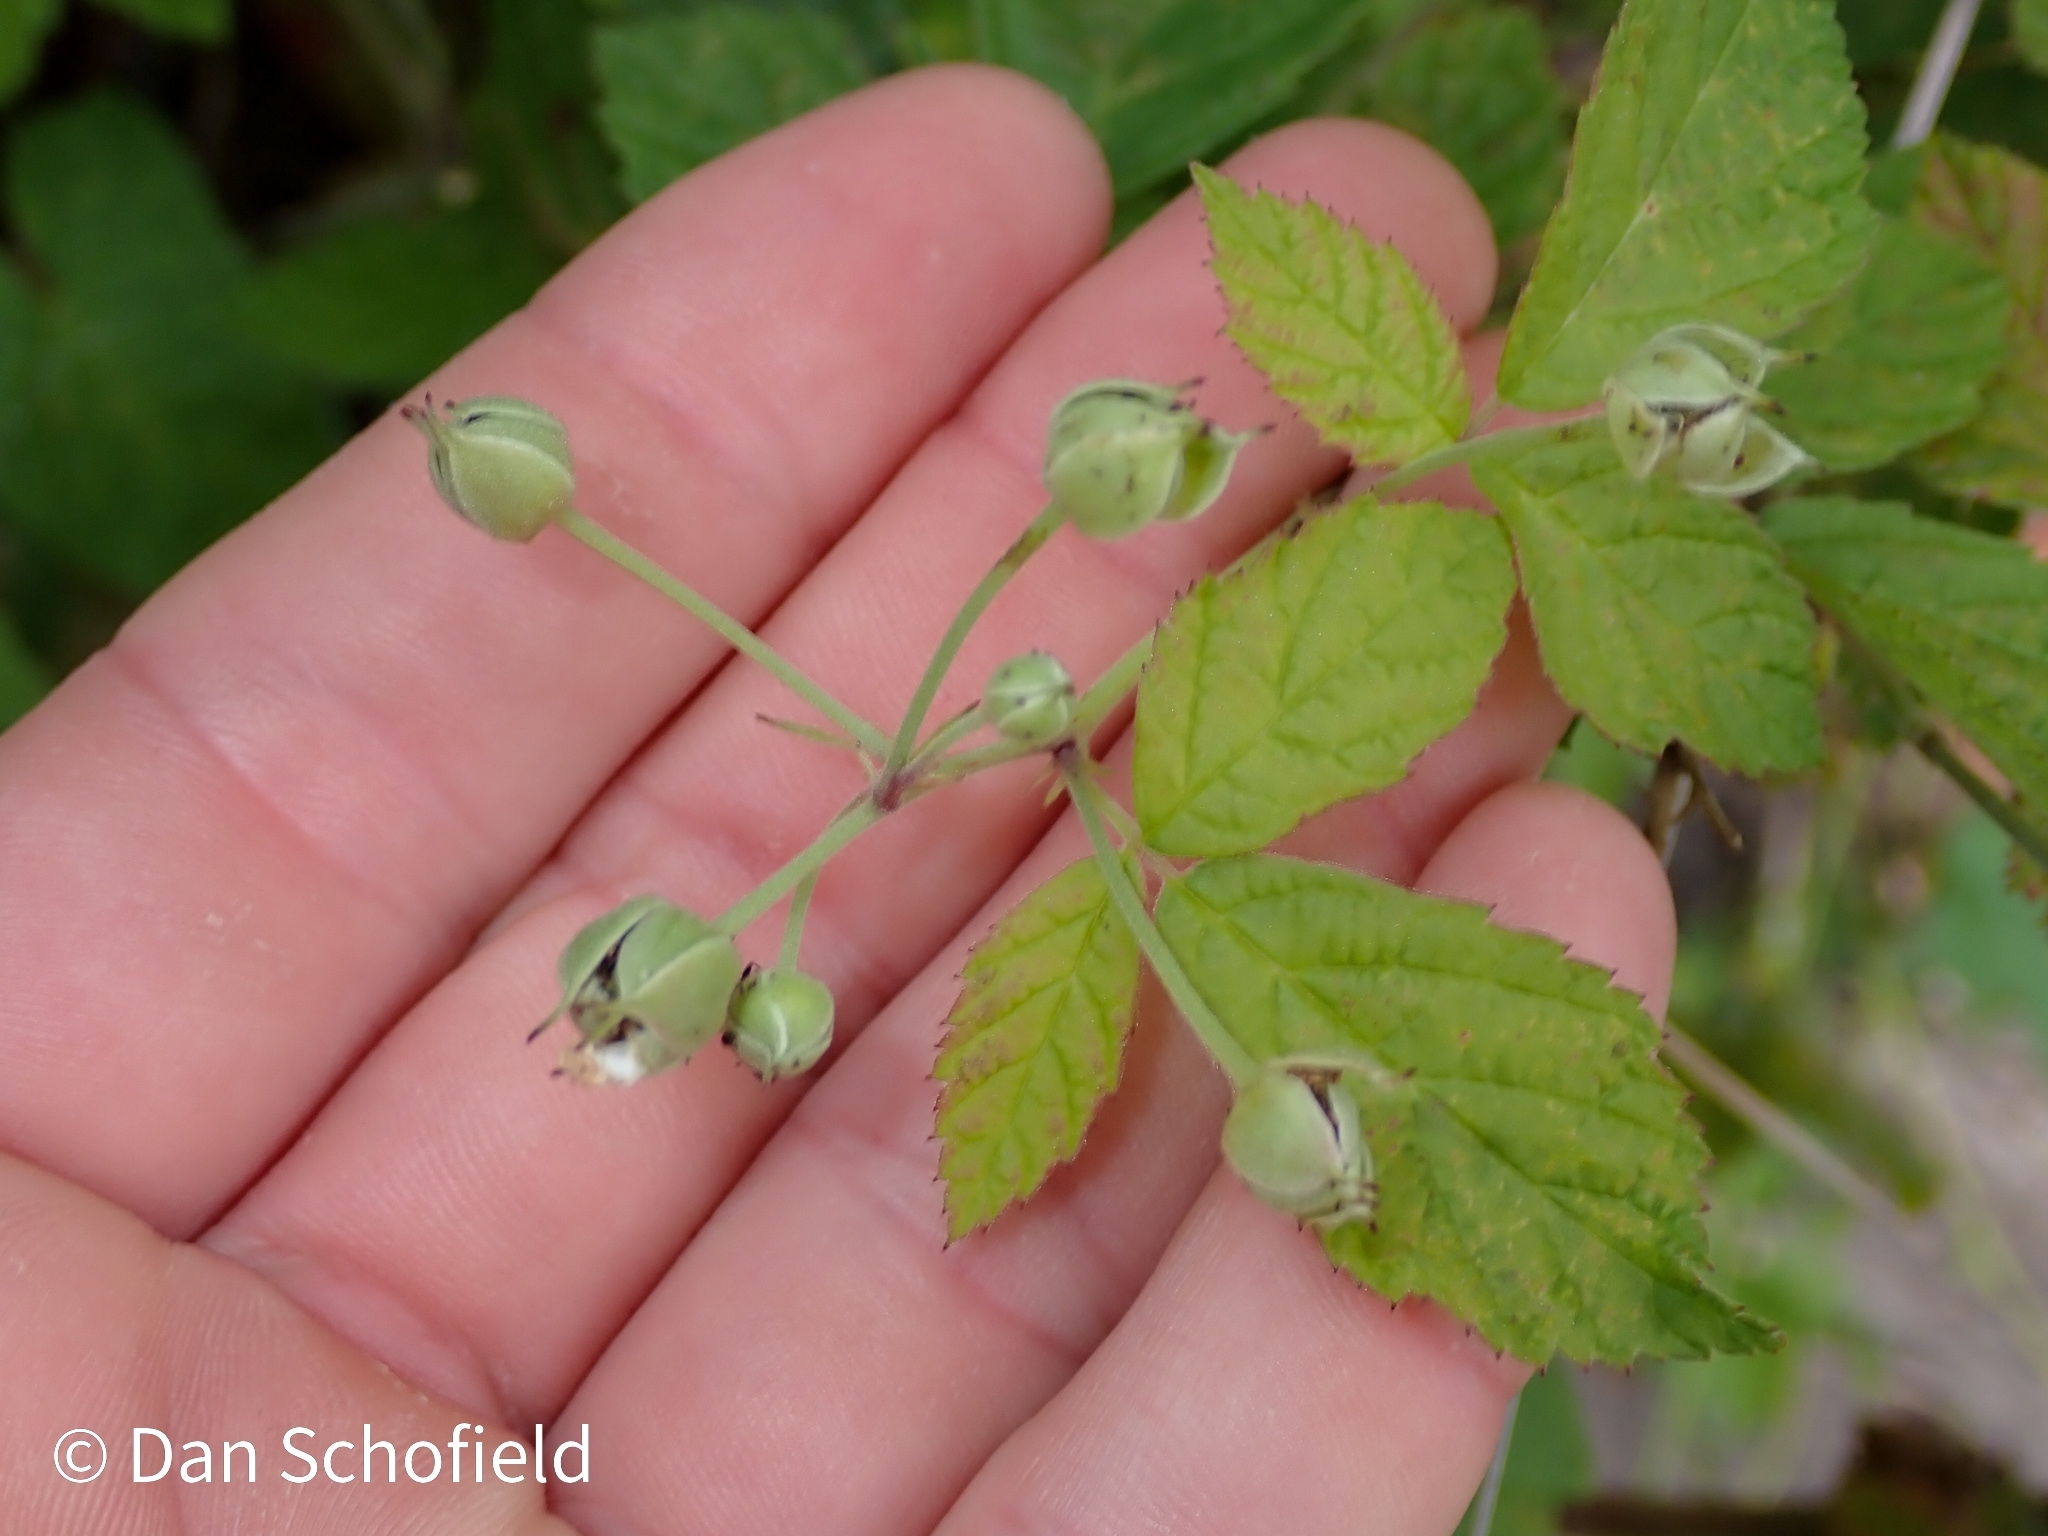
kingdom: Plantae
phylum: Tracheophyta
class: Magnoliopsida
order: Rosales
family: Rosaceae
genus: Rubus
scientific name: Rubus caesius
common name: Dewberry
